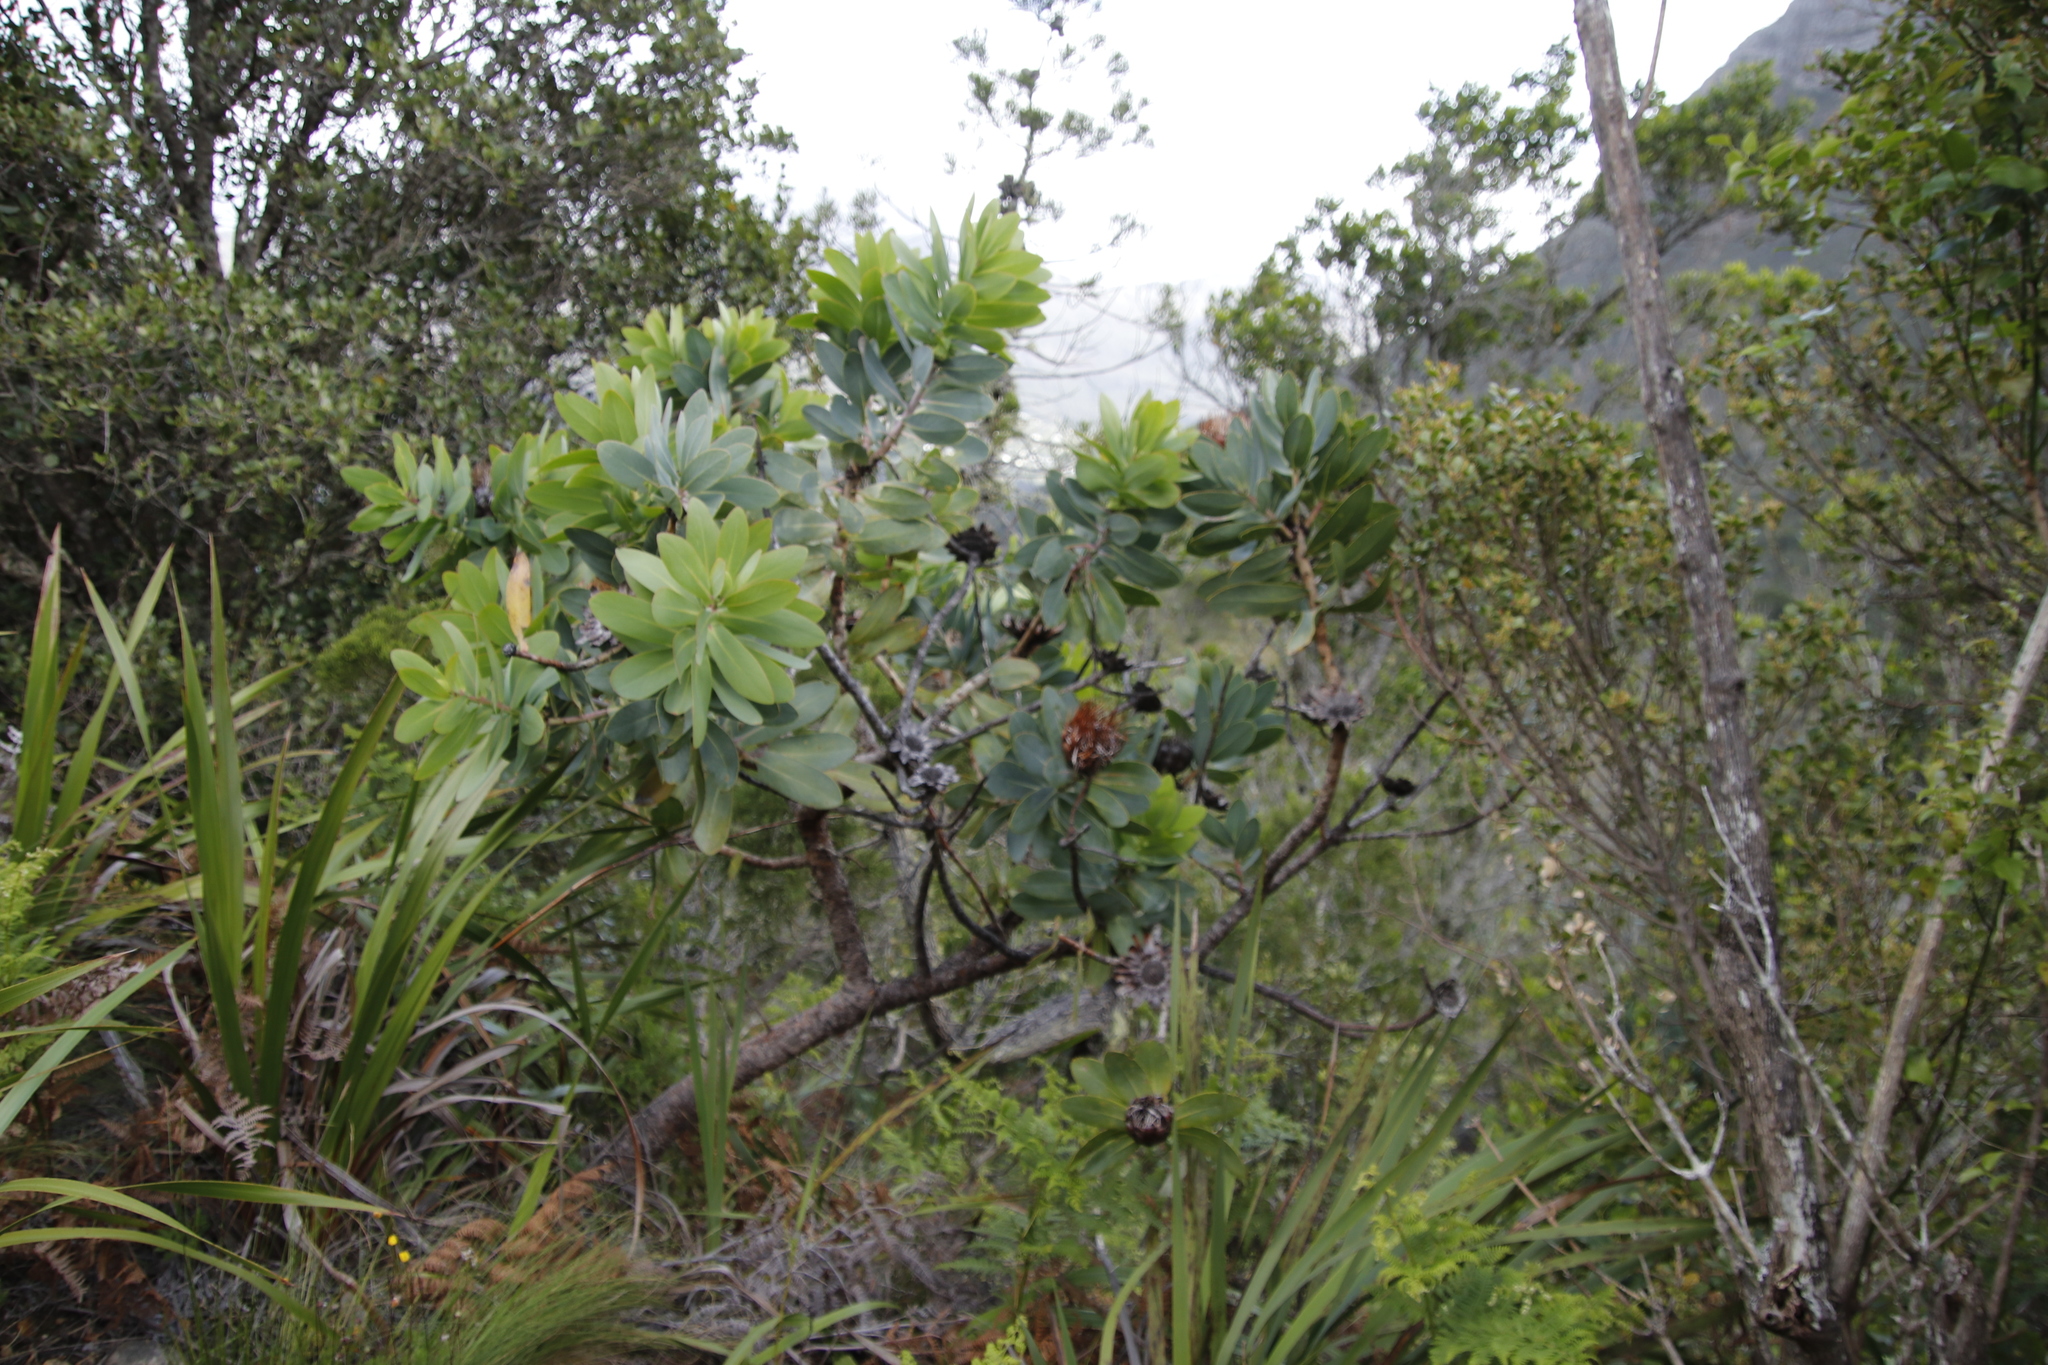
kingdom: Plantae
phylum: Tracheophyta
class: Magnoliopsida
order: Proteales
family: Proteaceae
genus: Protea
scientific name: Protea nitida
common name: Tree protea
